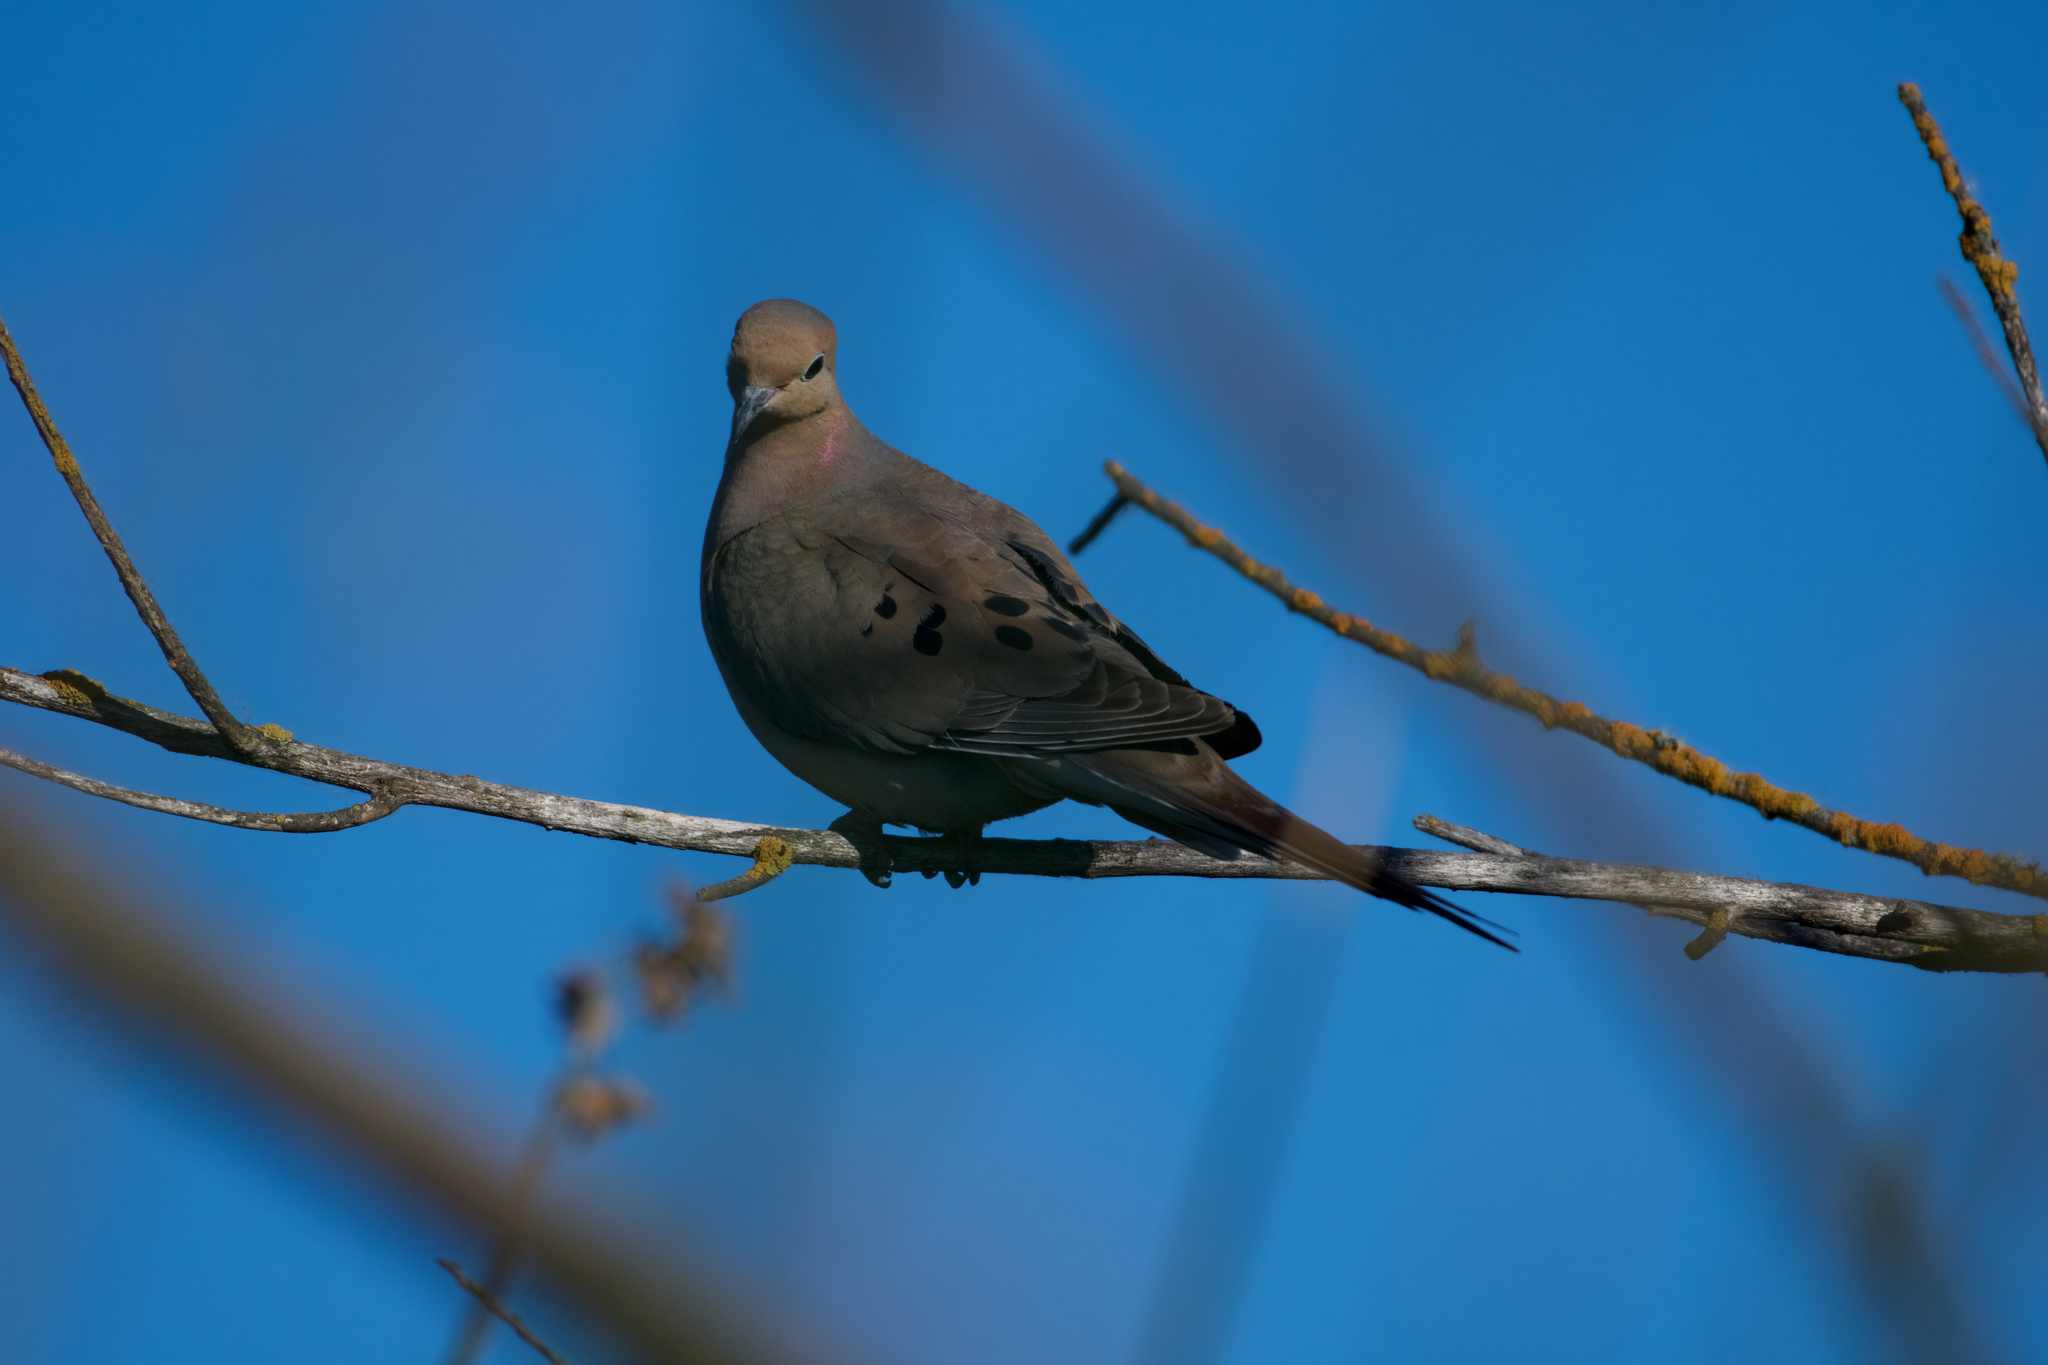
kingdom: Animalia
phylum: Chordata
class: Aves
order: Columbiformes
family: Columbidae
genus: Zenaida
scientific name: Zenaida macroura
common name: Mourning dove
